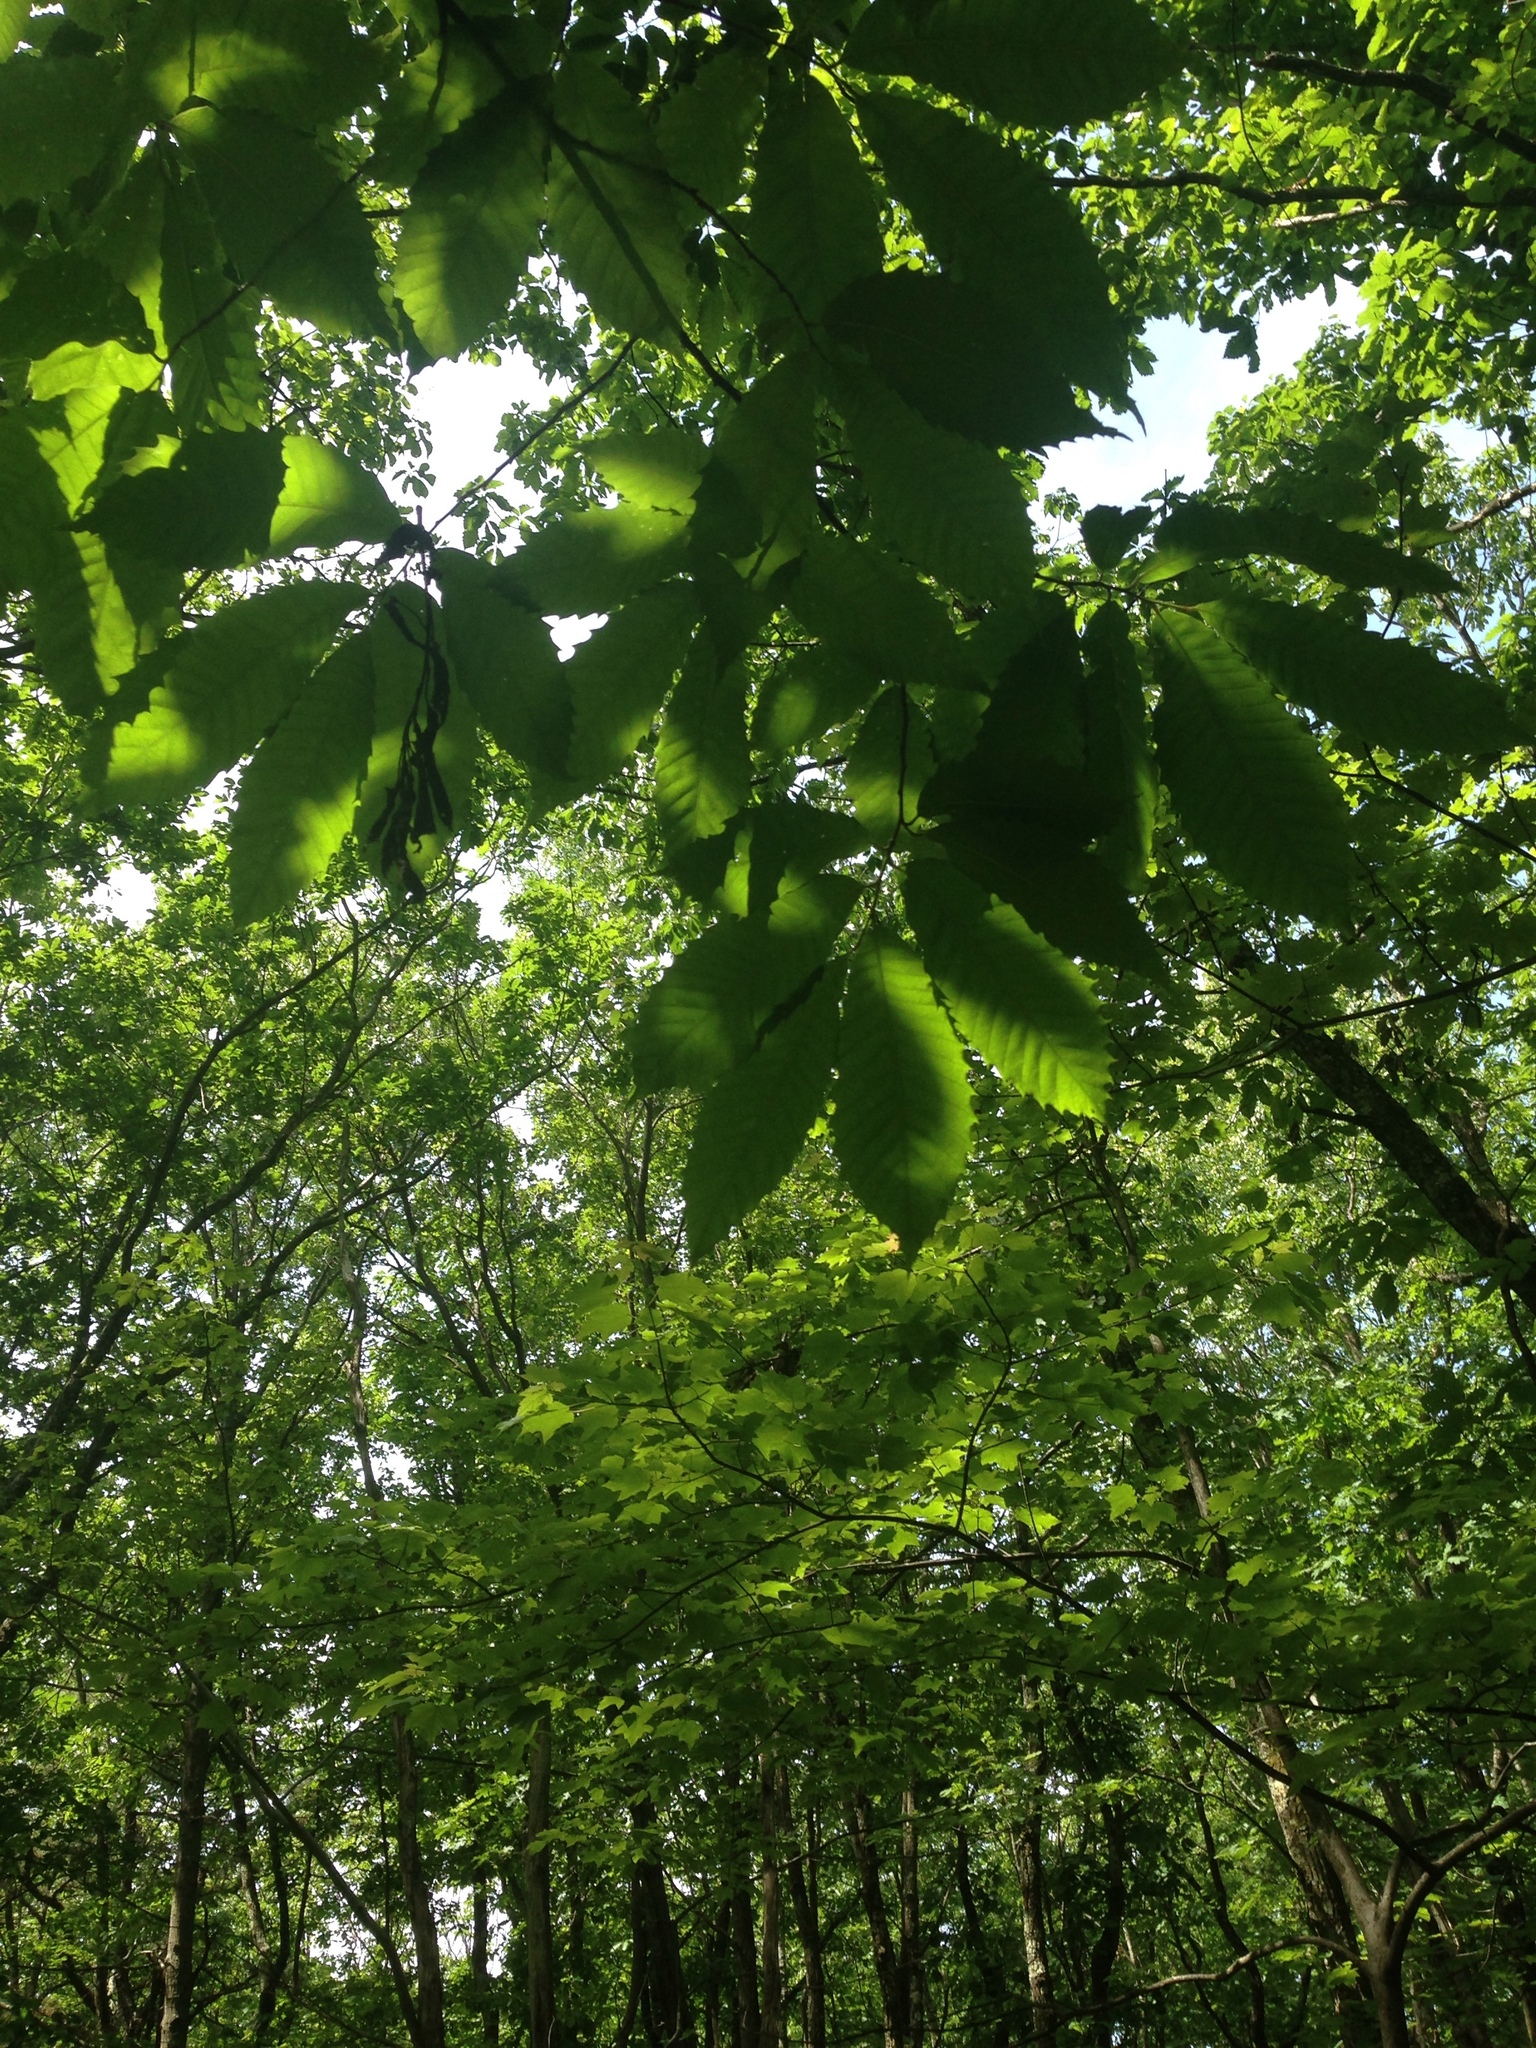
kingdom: Plantae
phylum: Tracheophyta
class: Magnoliopsida
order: Fagales
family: Fagaceae
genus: Castanea
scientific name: Castanea dentata
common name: American chestnut
